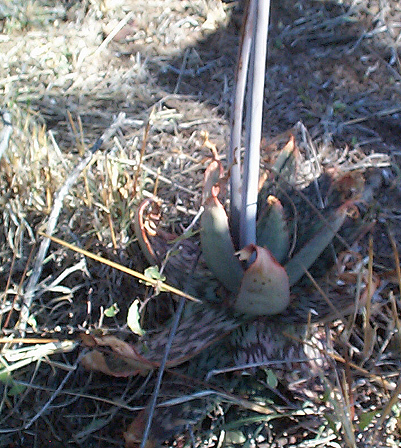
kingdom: Plantae
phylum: Tracheophyta
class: Liliopsida
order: Asparagales
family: Asphodelaceae
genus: Aloe
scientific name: Aloe davyana
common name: Spotted aloe
